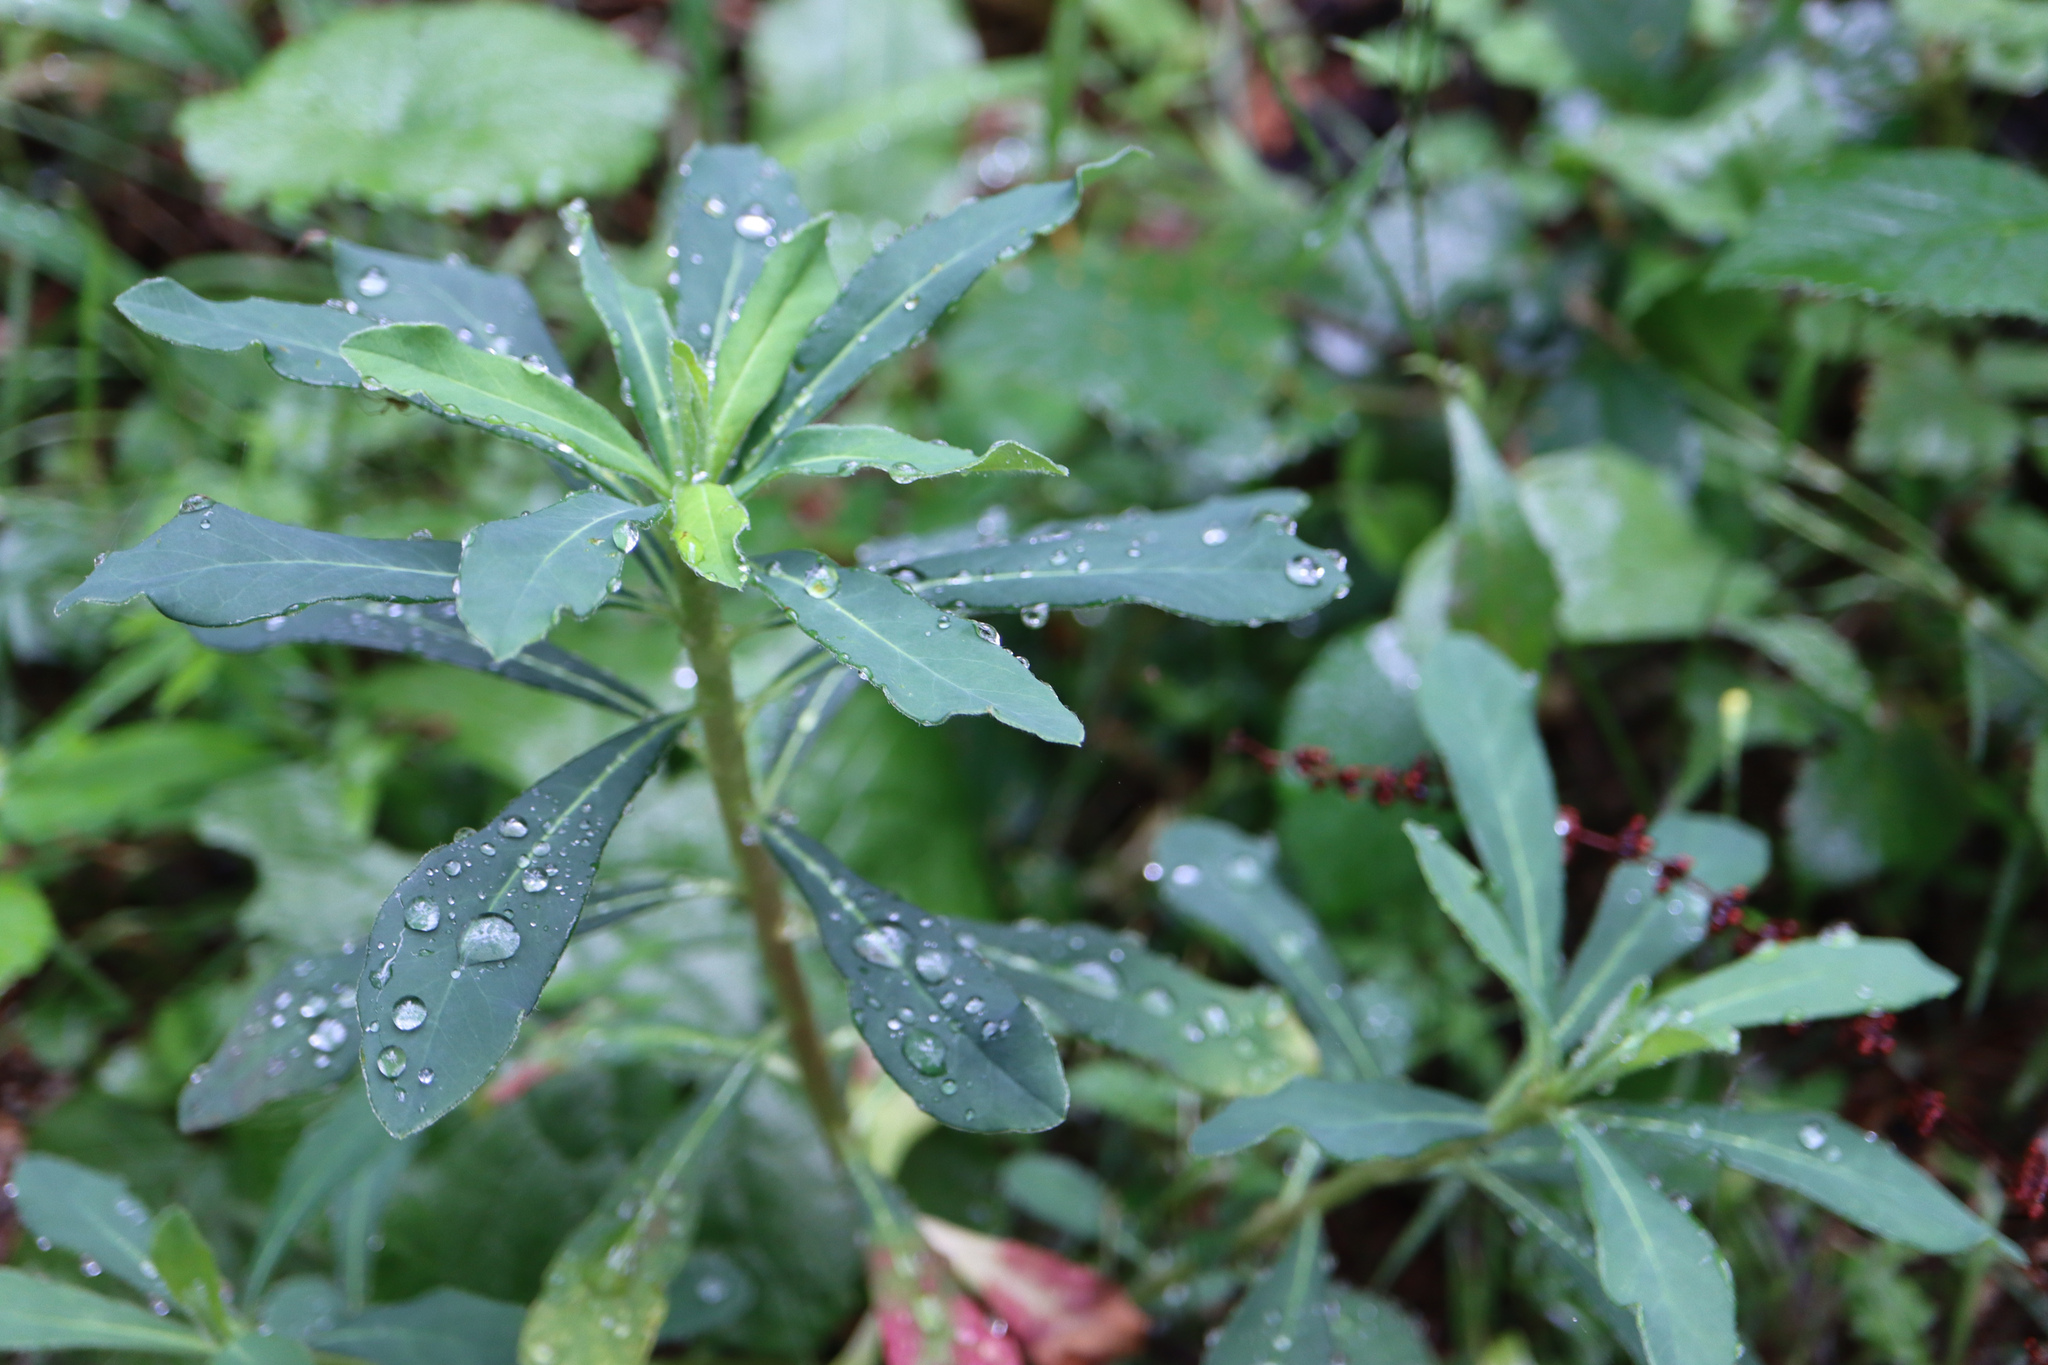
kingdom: Plantae
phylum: Tracheophyta
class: Magnoliopsida
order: Malpighiales
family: Euphorbiaceae
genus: Euphorbia
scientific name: Euphorbia amygdaloides
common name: Wood spurge
